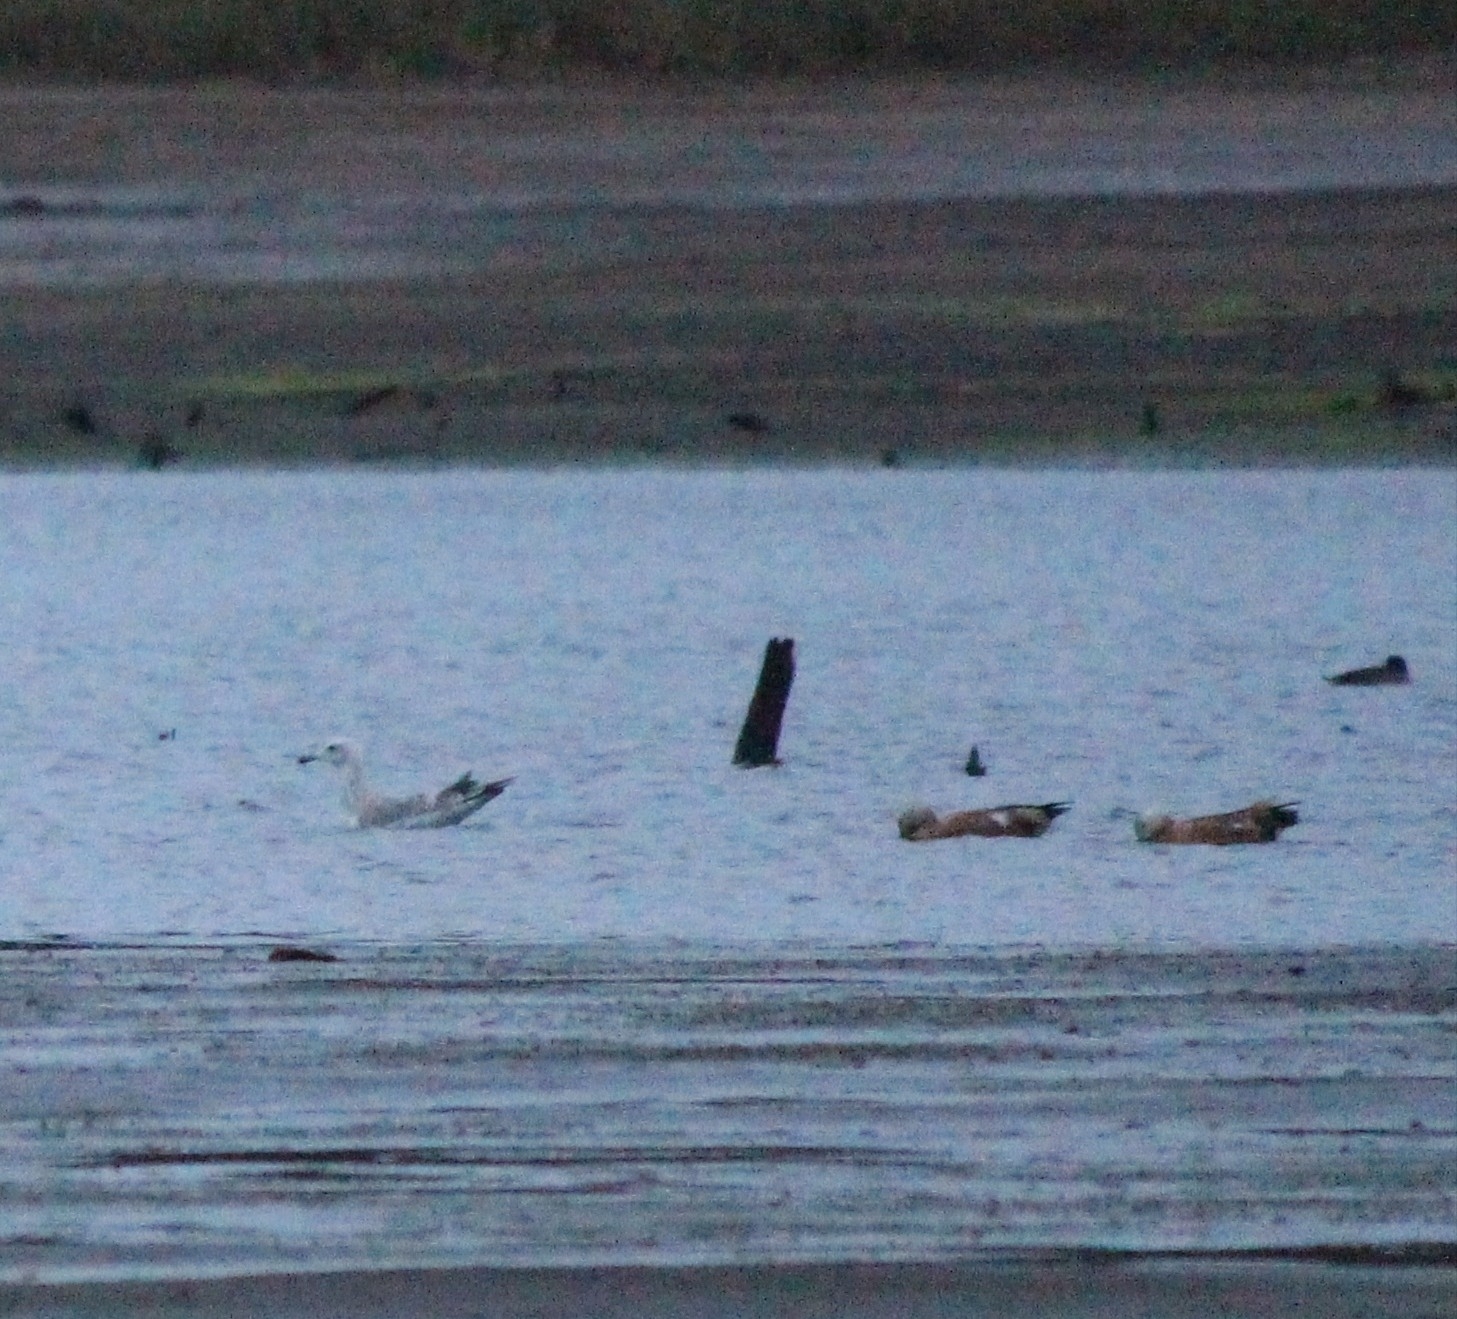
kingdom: Animalia
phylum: Chordata
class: Aves
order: Anseriformes
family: Anatidae
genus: Tadorna
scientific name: Tadorna ferruginea
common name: Ruddy shelduck
